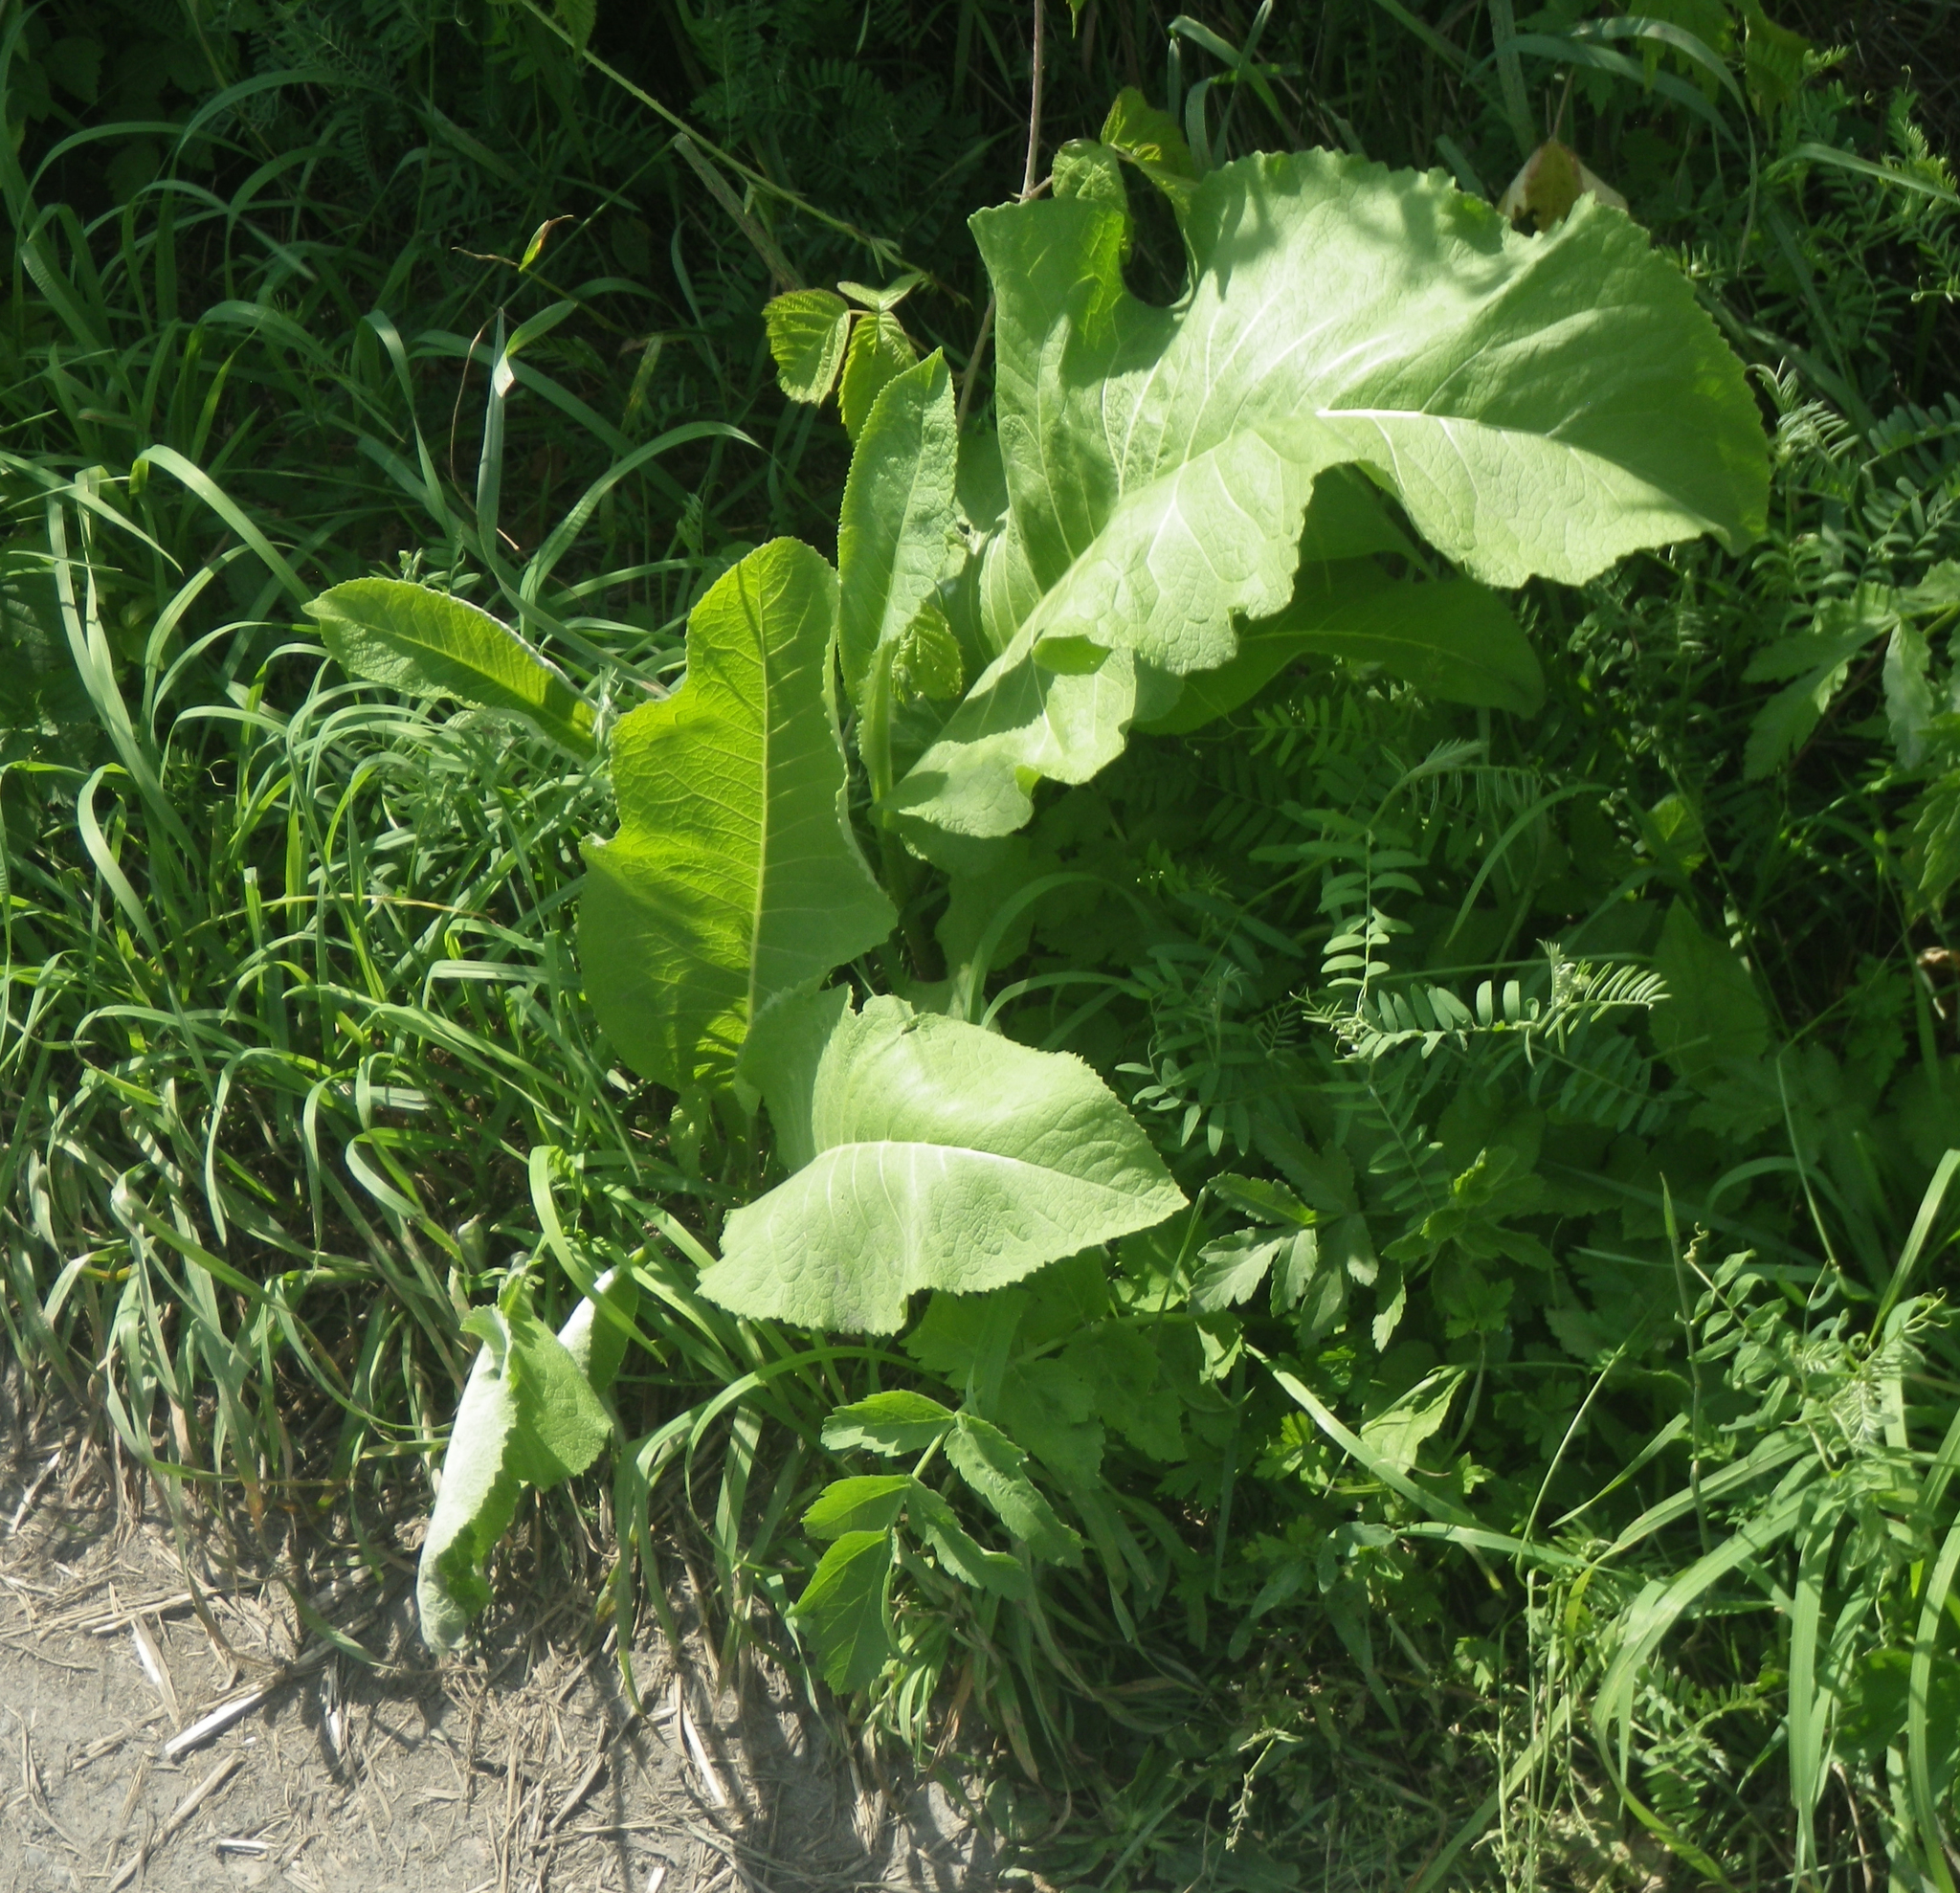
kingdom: Plantae
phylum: Tracheophyta
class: Magnoliopsida
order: Asterales
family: Asteraceae
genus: Inula
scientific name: Inula helenium
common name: Elecampane
